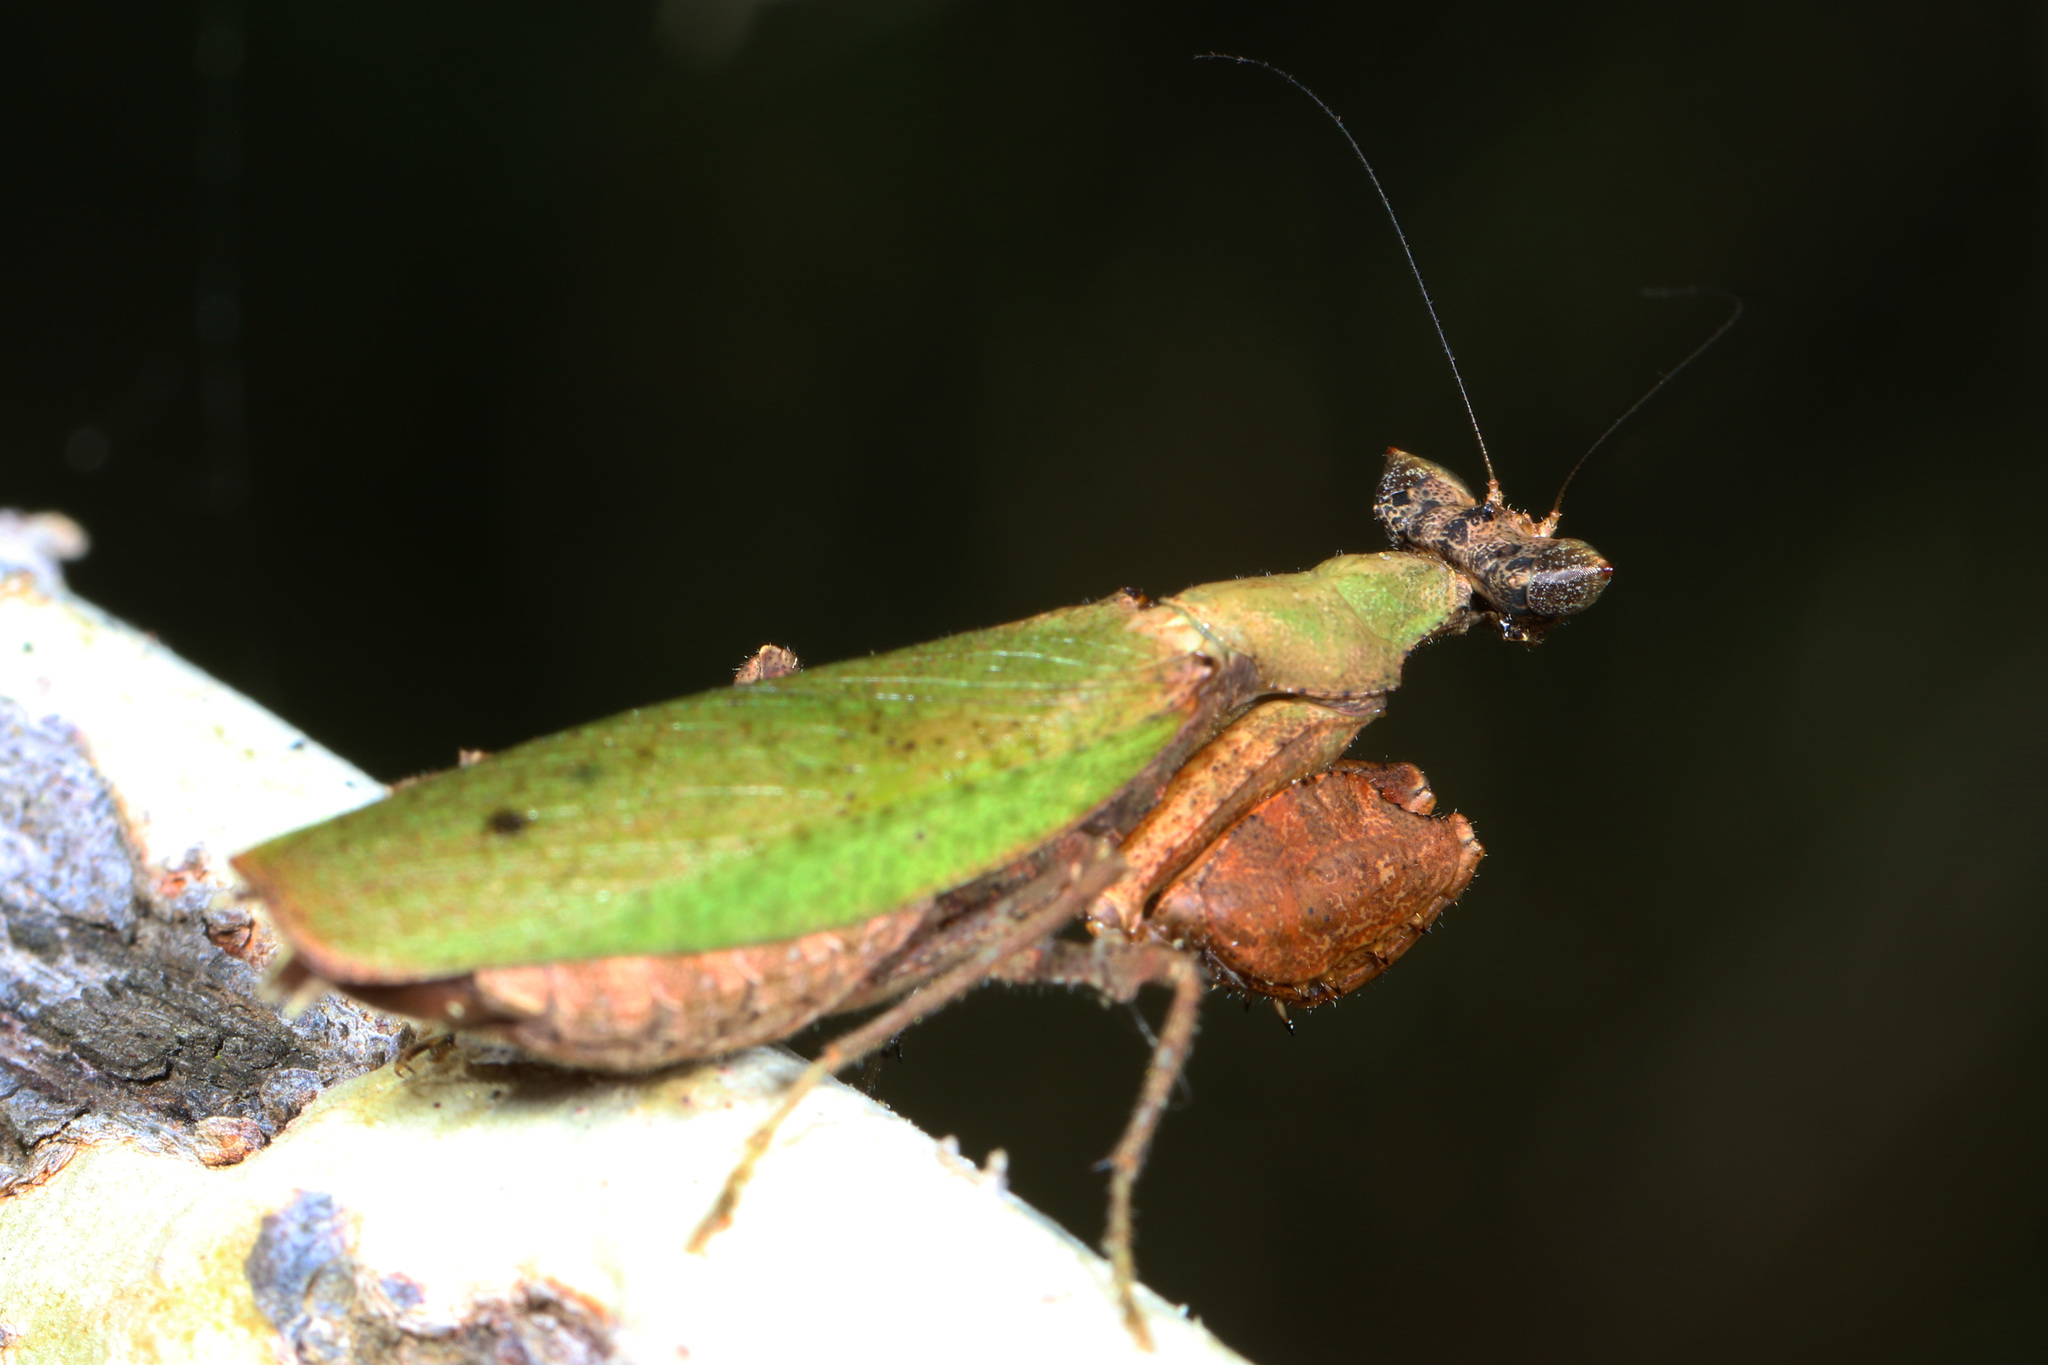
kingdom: Animalia
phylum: Arthropoda
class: Insecta
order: Mantodea
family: Hymenopodidae
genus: Otomantis
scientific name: Otomantis scutigera
